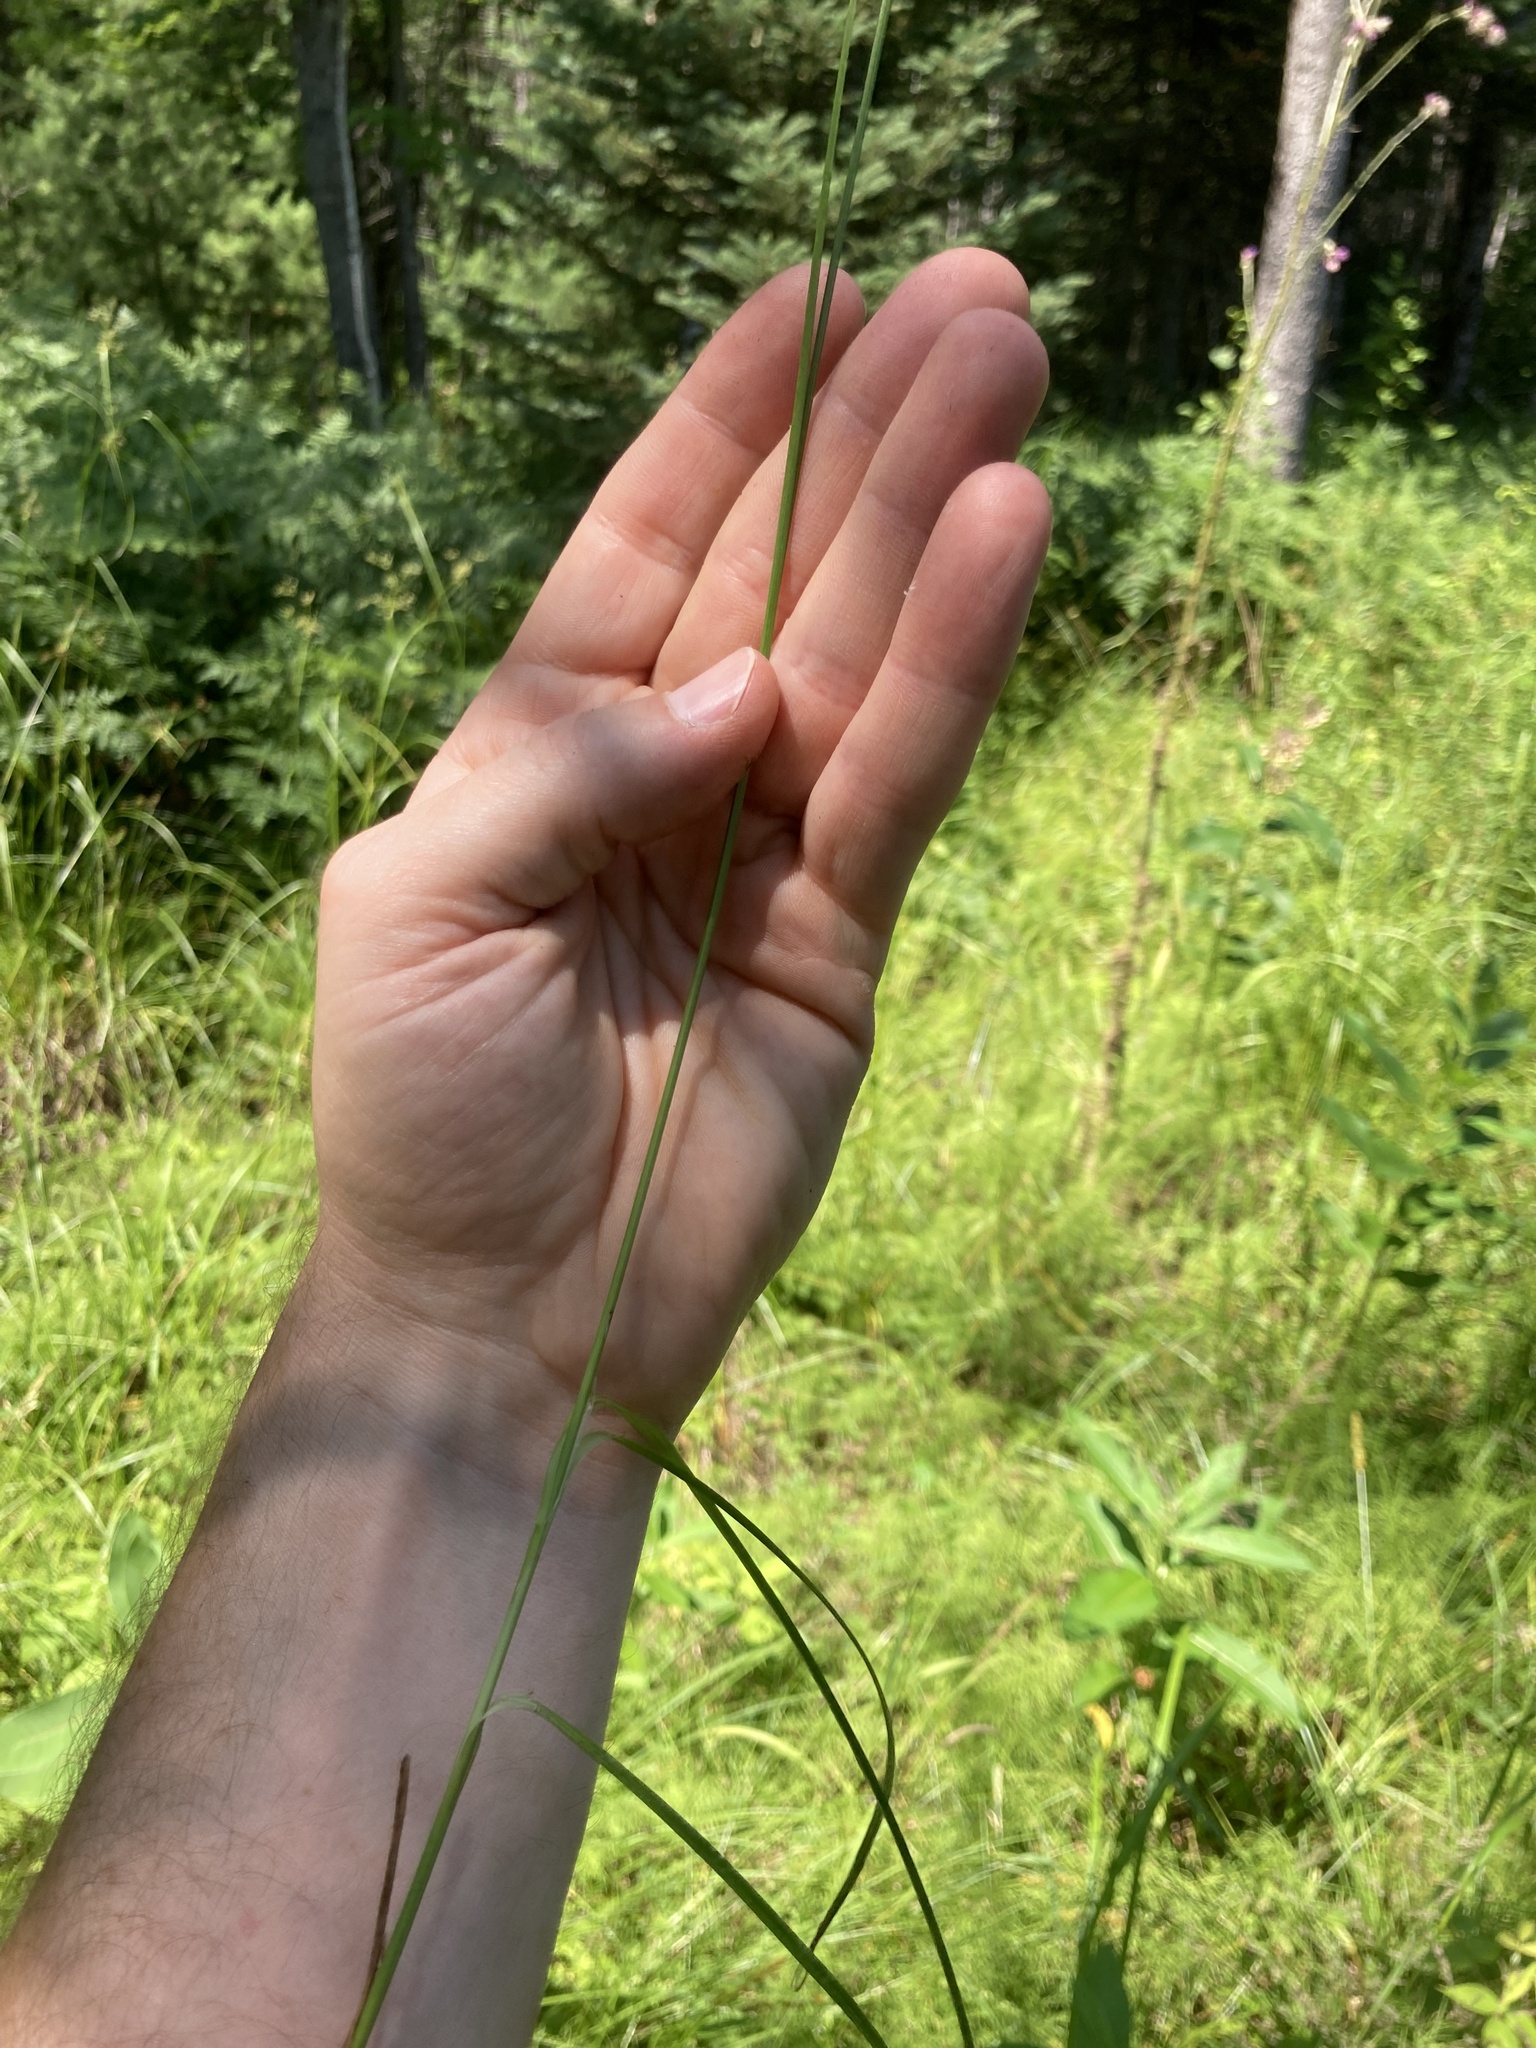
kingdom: Plantae
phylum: Tracheophyta
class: Liliopsida
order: Poales
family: Cyperaceae
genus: Carex
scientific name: Carex vulpinoidea
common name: American fox-sedge
